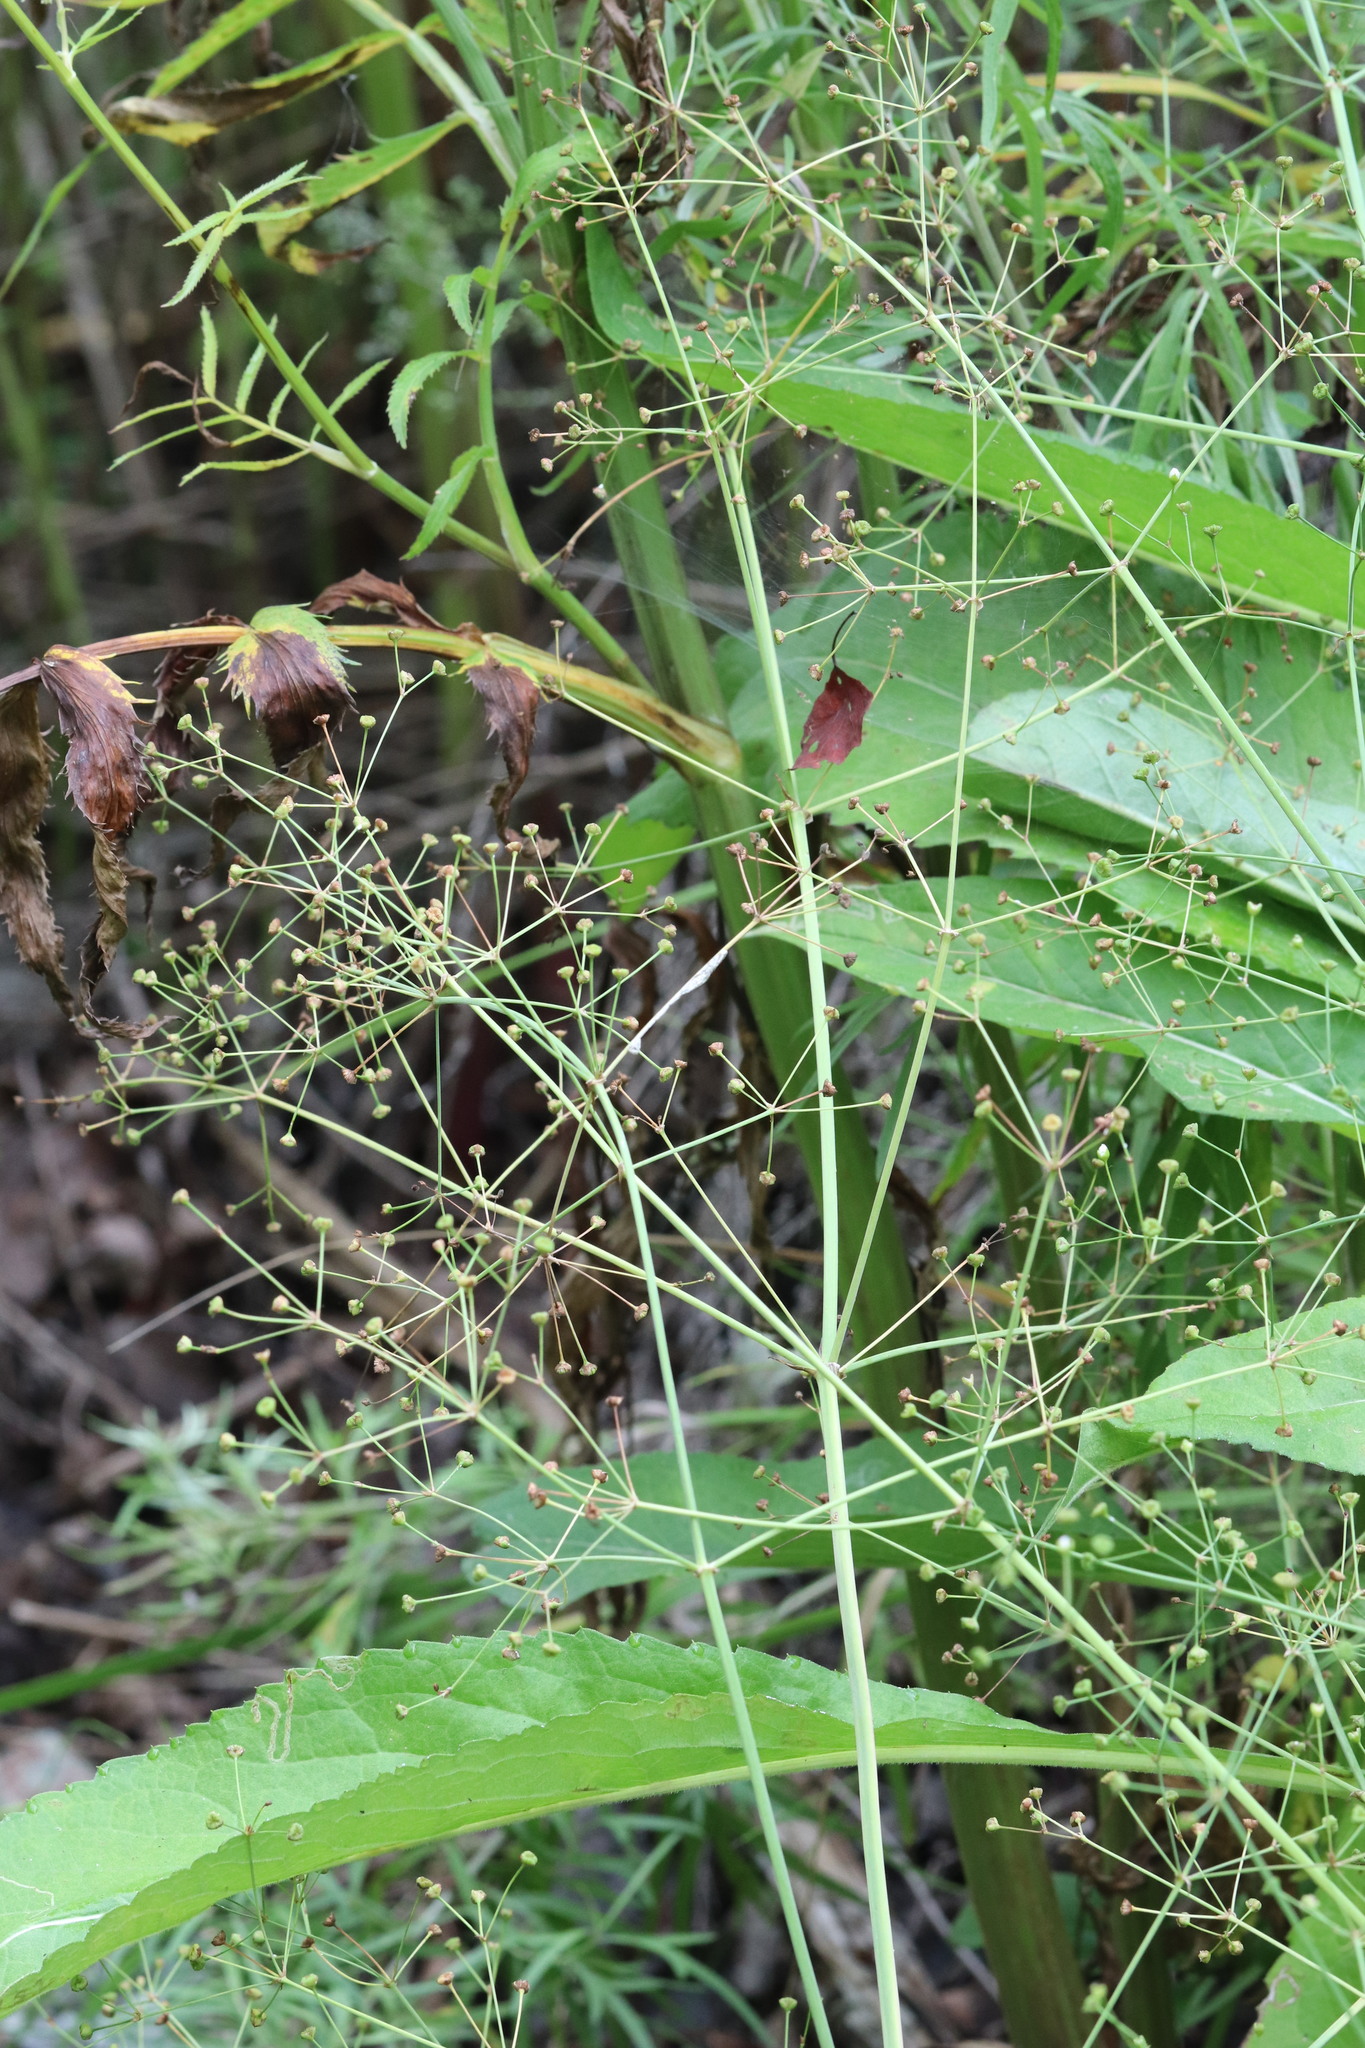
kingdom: Plantae
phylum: Tracheophyta
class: Liliopsida
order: Alismatales
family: Alismataceae
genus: Alisma
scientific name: Alisma plantago-aquatica
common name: Water-plantain
